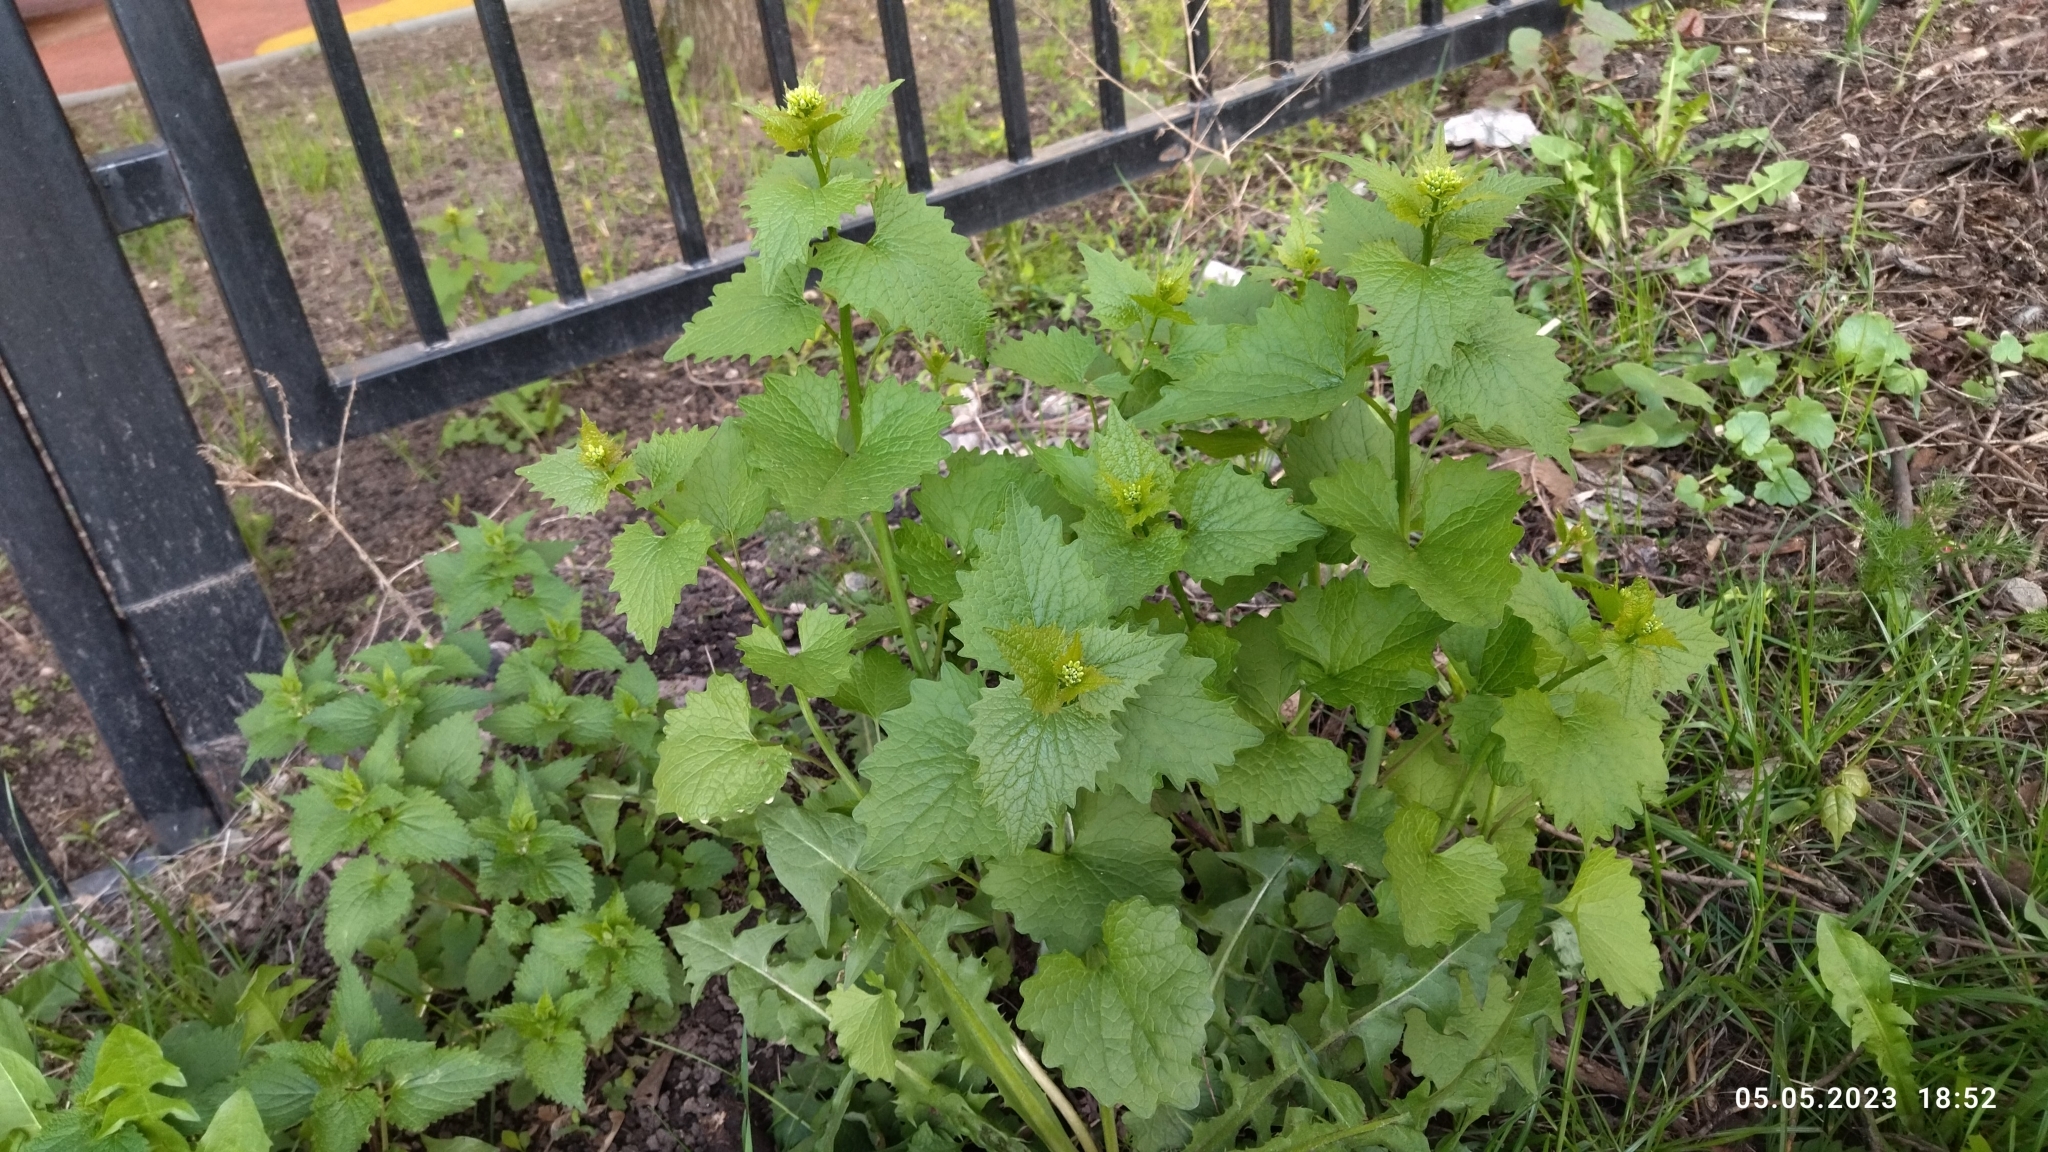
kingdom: Plantae
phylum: Tracheophyta
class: Magnoliopsida
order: Brassicales
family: Brassicaceae
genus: Alliaria
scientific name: Alliaria petiolata
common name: Garlic mustard
